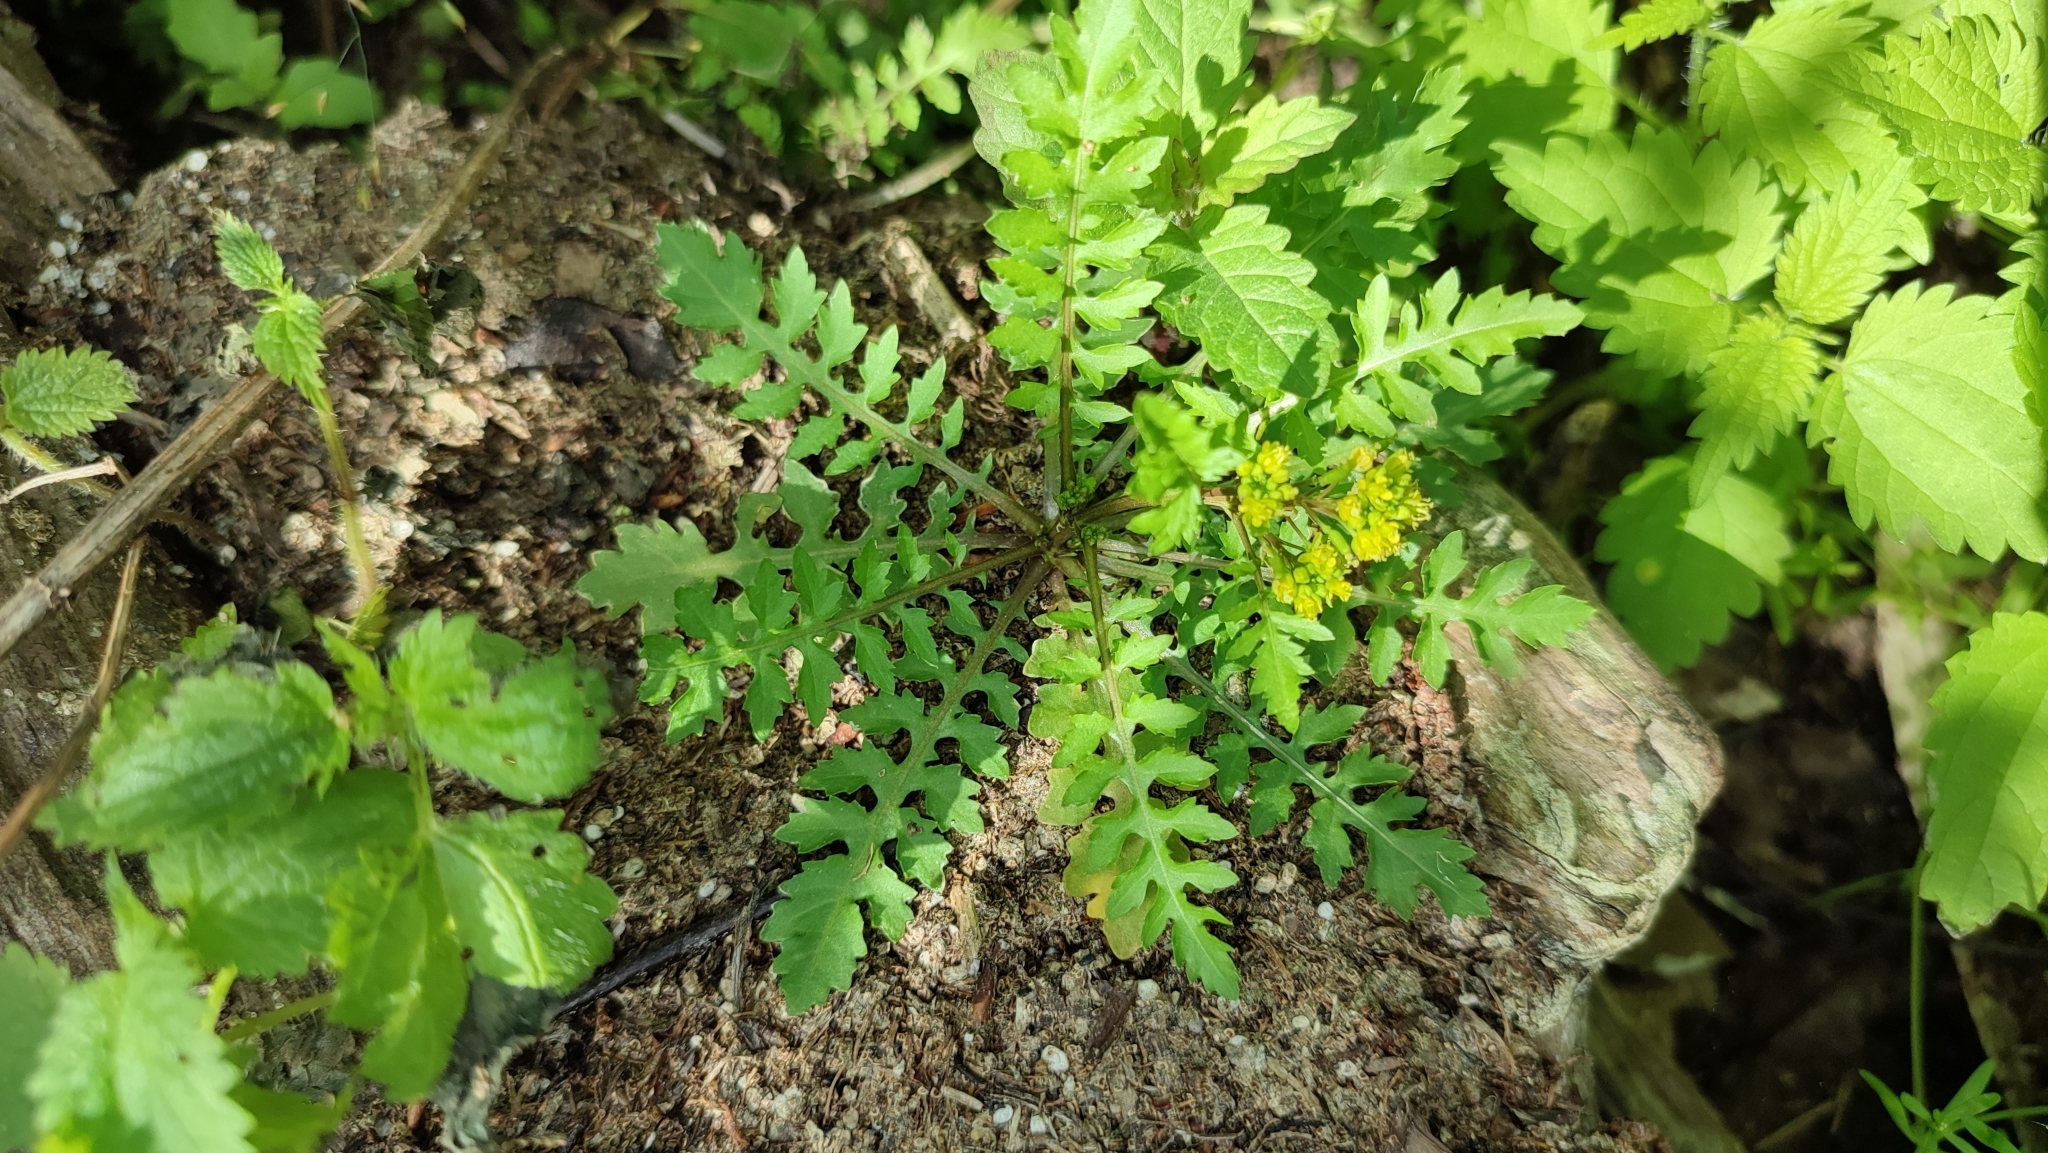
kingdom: Plantae
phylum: Tracheophyta
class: Magnoliopsida
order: Brassicales
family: Brassicaceae
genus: Rorippa
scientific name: Rorippa palustris
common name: Marsh yellow-cress
